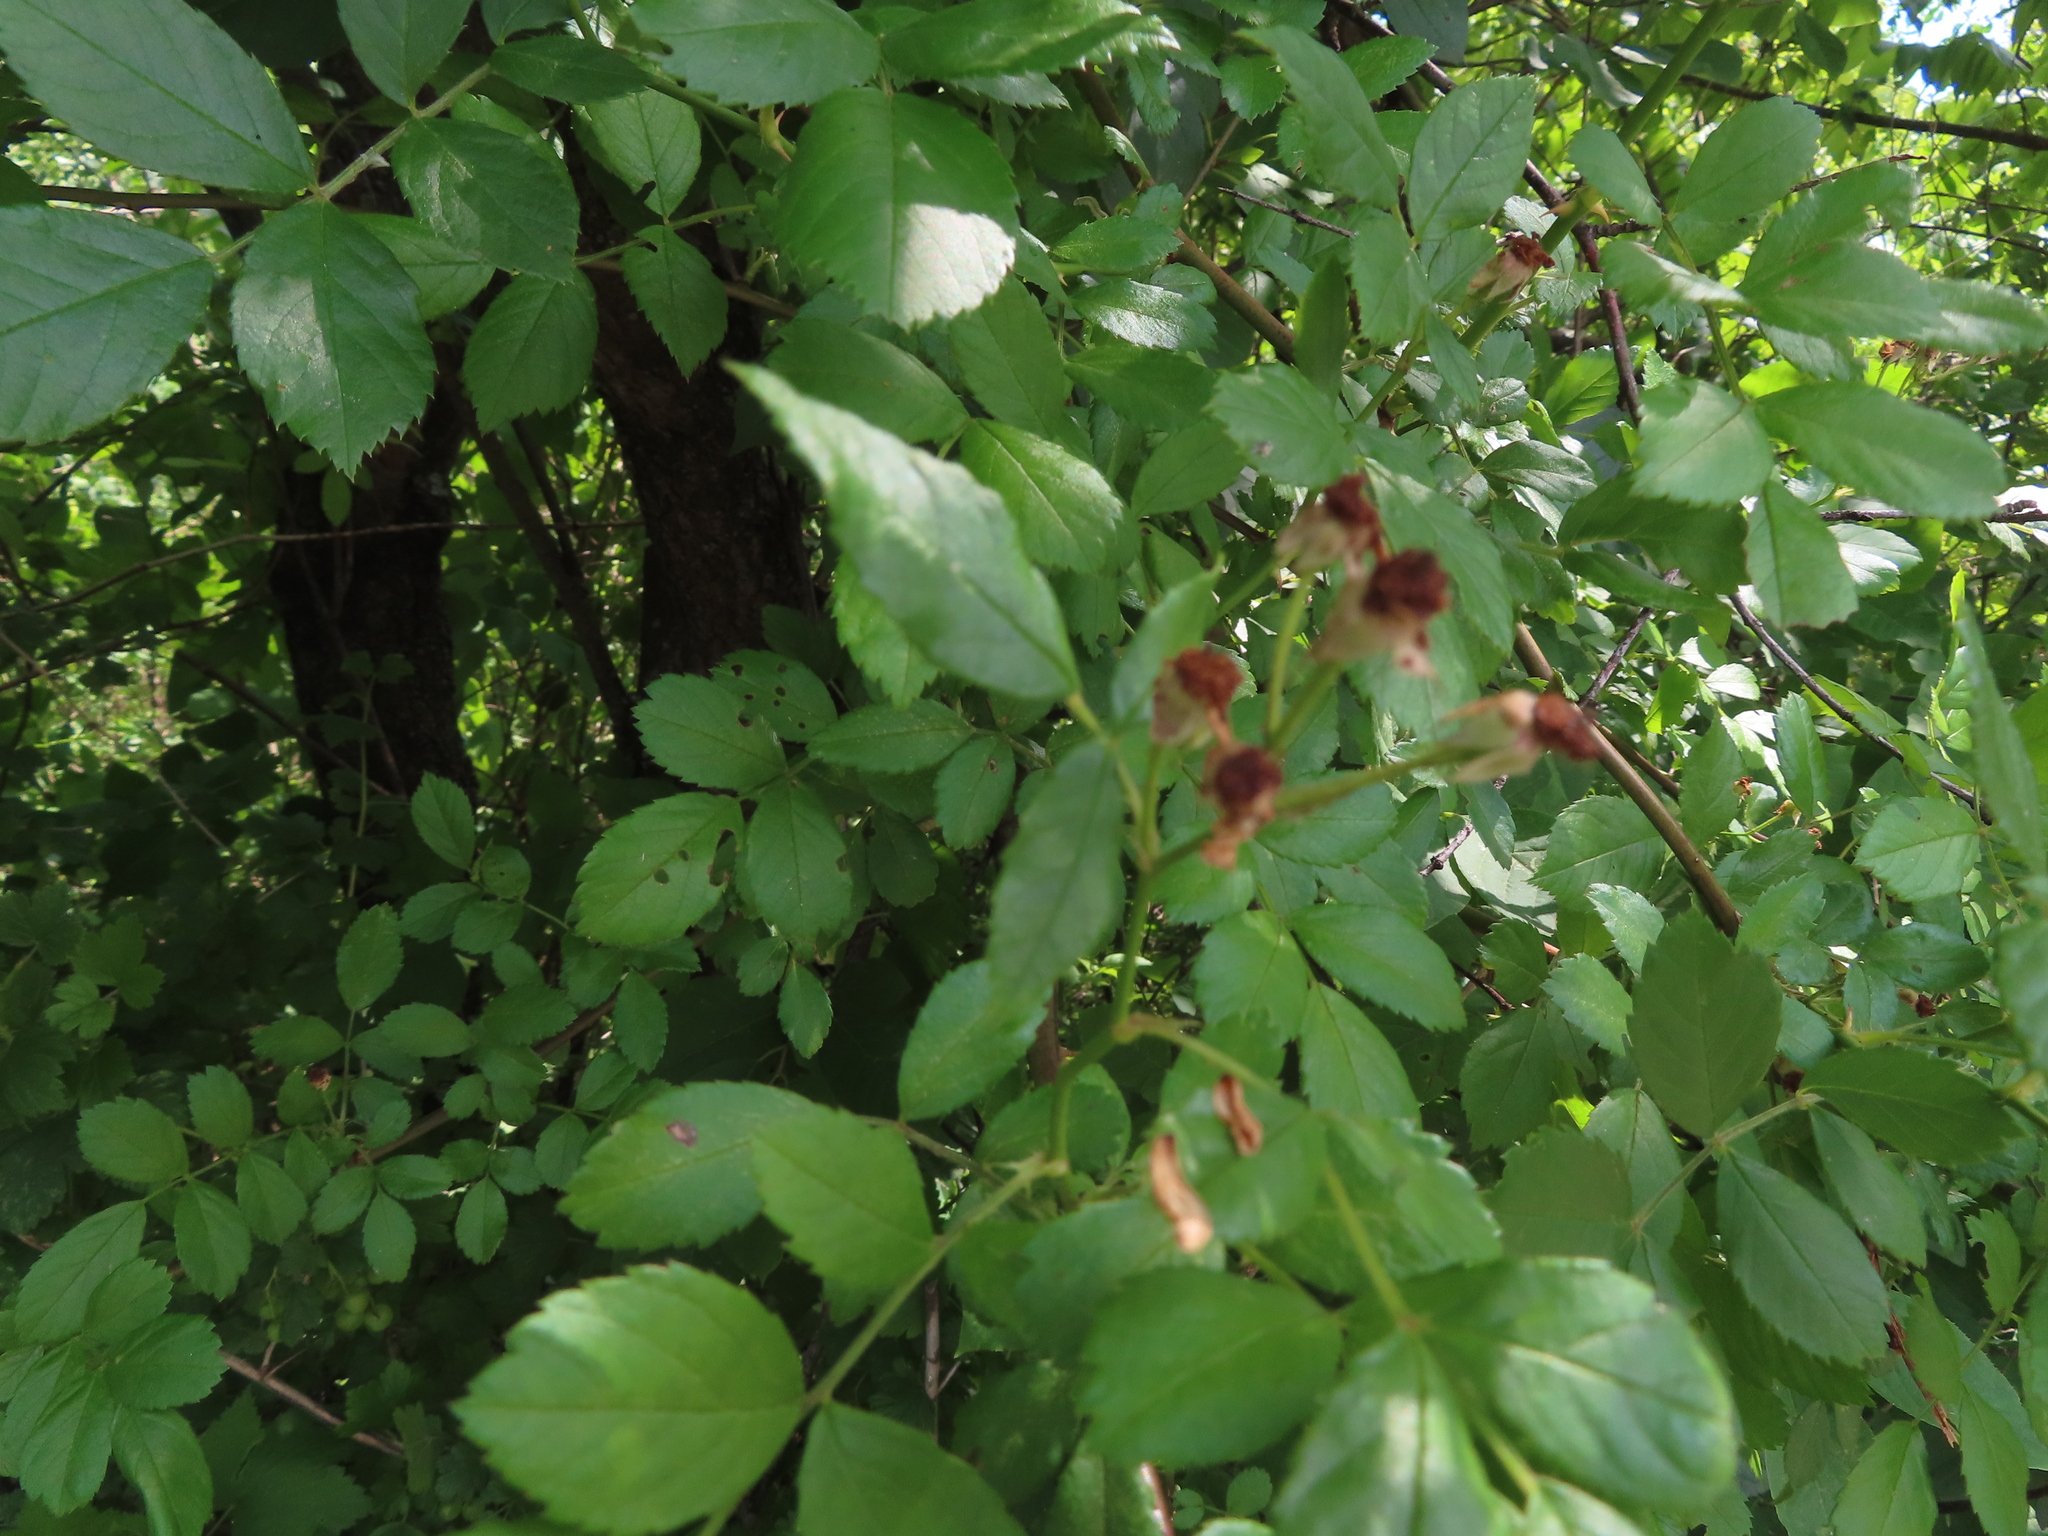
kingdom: Plantae
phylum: Tracheophyta
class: Magnoliopsida
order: Rosales
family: Rosaceae
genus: Rosa
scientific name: Rosa multiflora
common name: Multiflora rose
